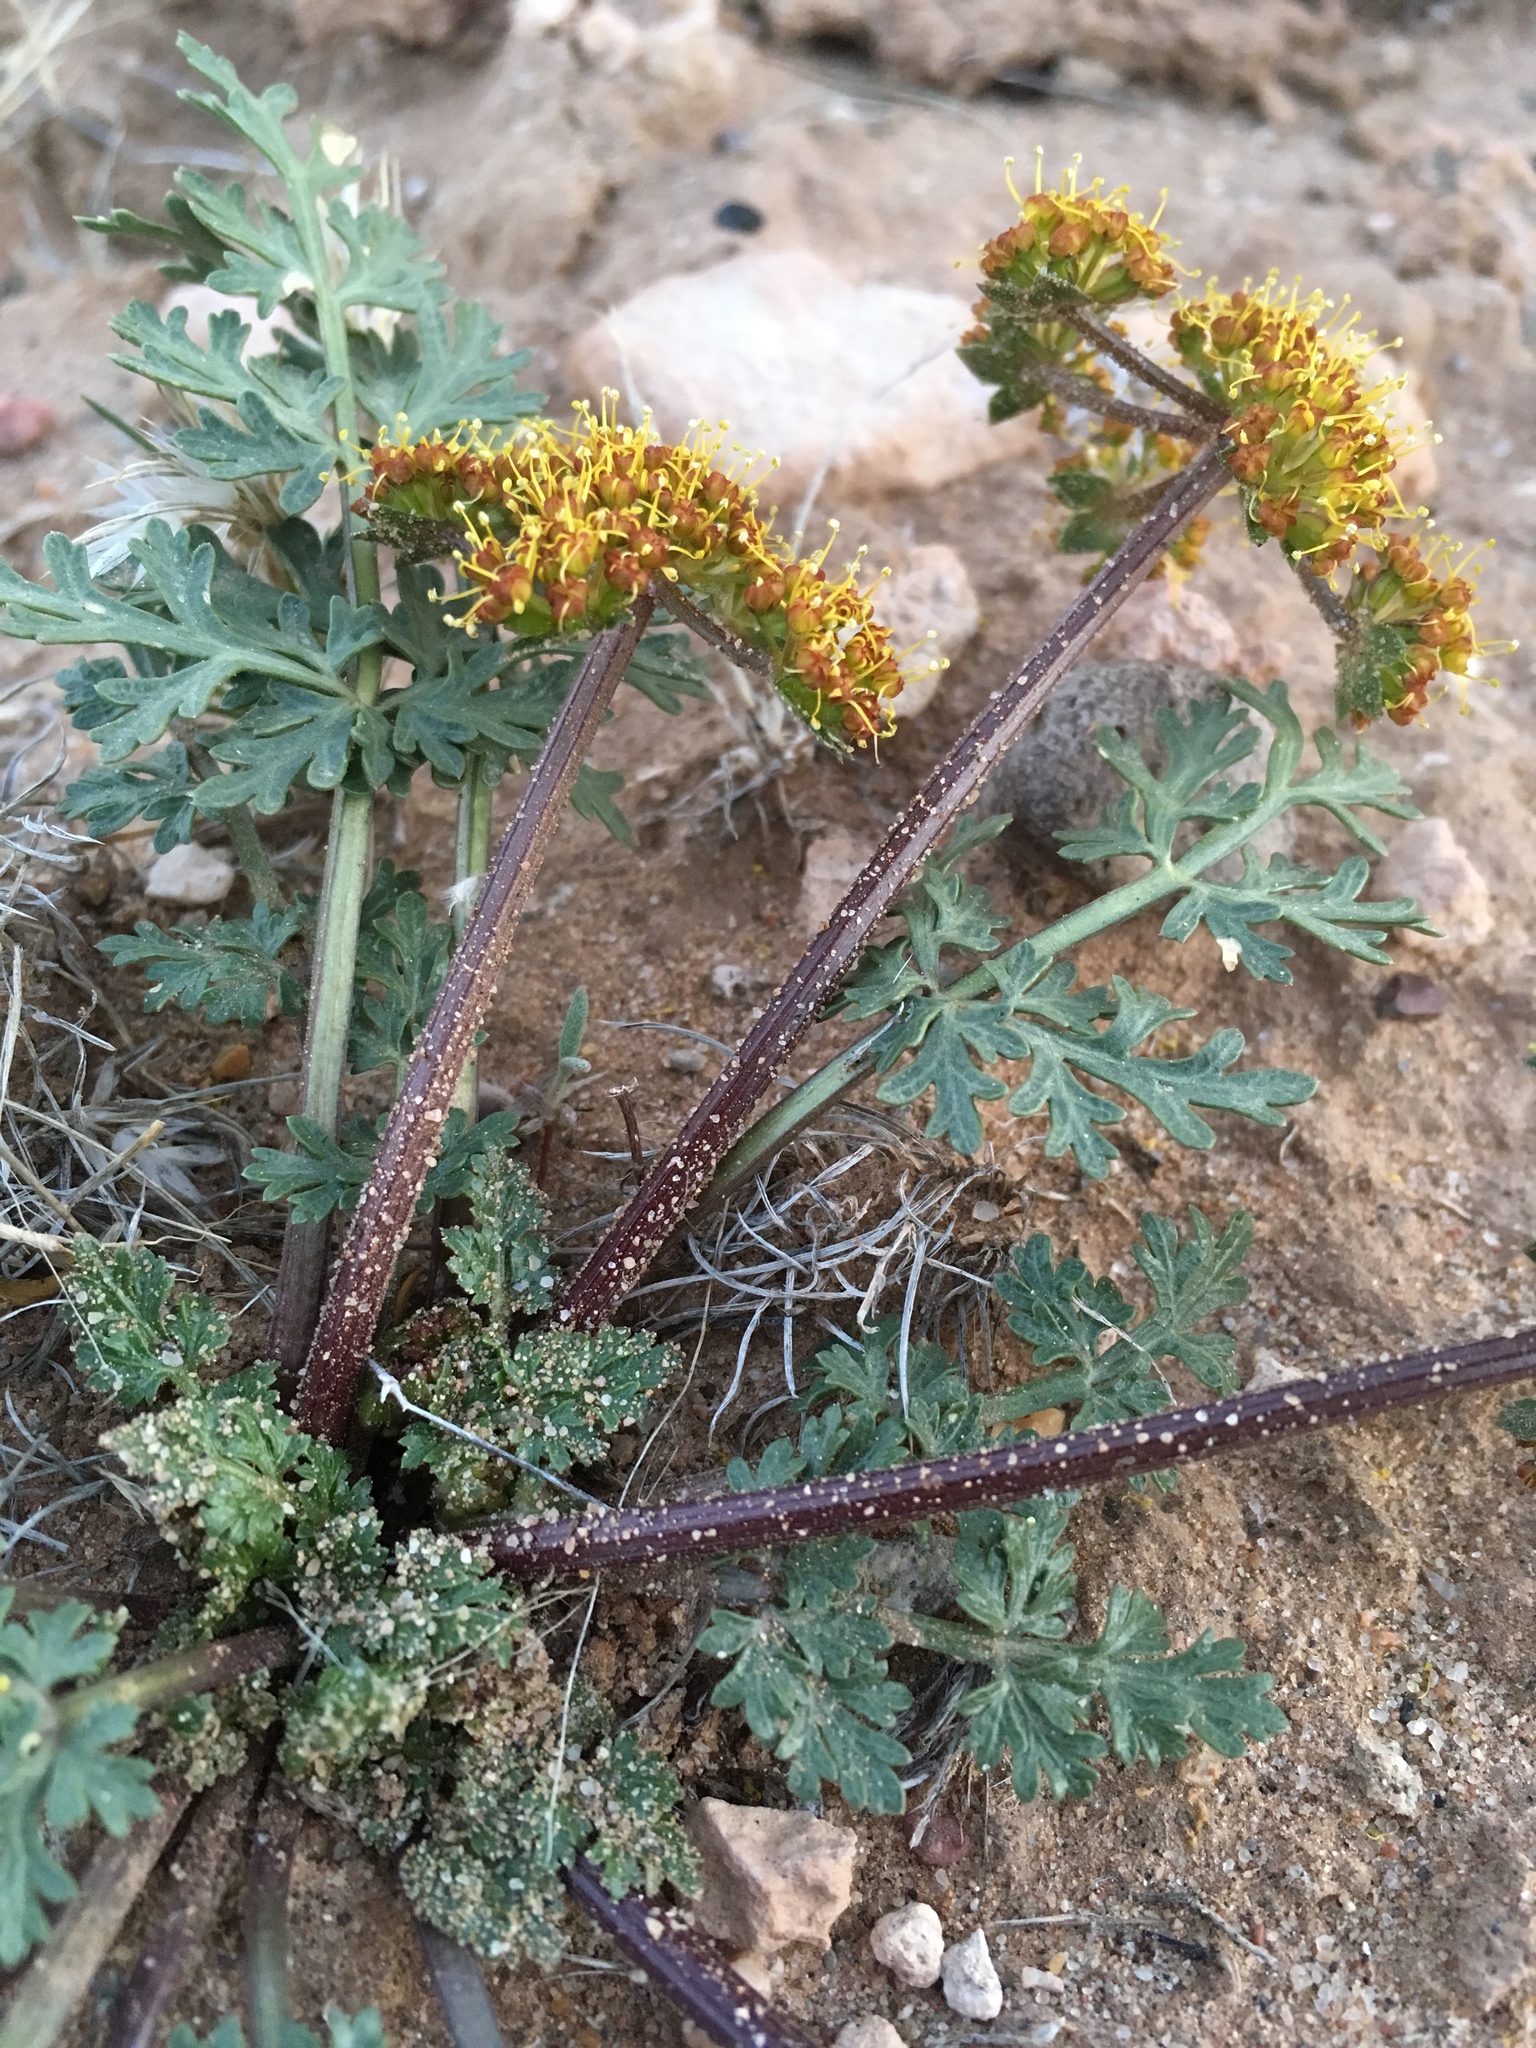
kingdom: Plantae
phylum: Tracheophyta
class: Magnoliopsida
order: Apiales
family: Apiaceae
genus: Cymopterus
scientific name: Cymopterus glomeratus
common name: Plains spring parsley
